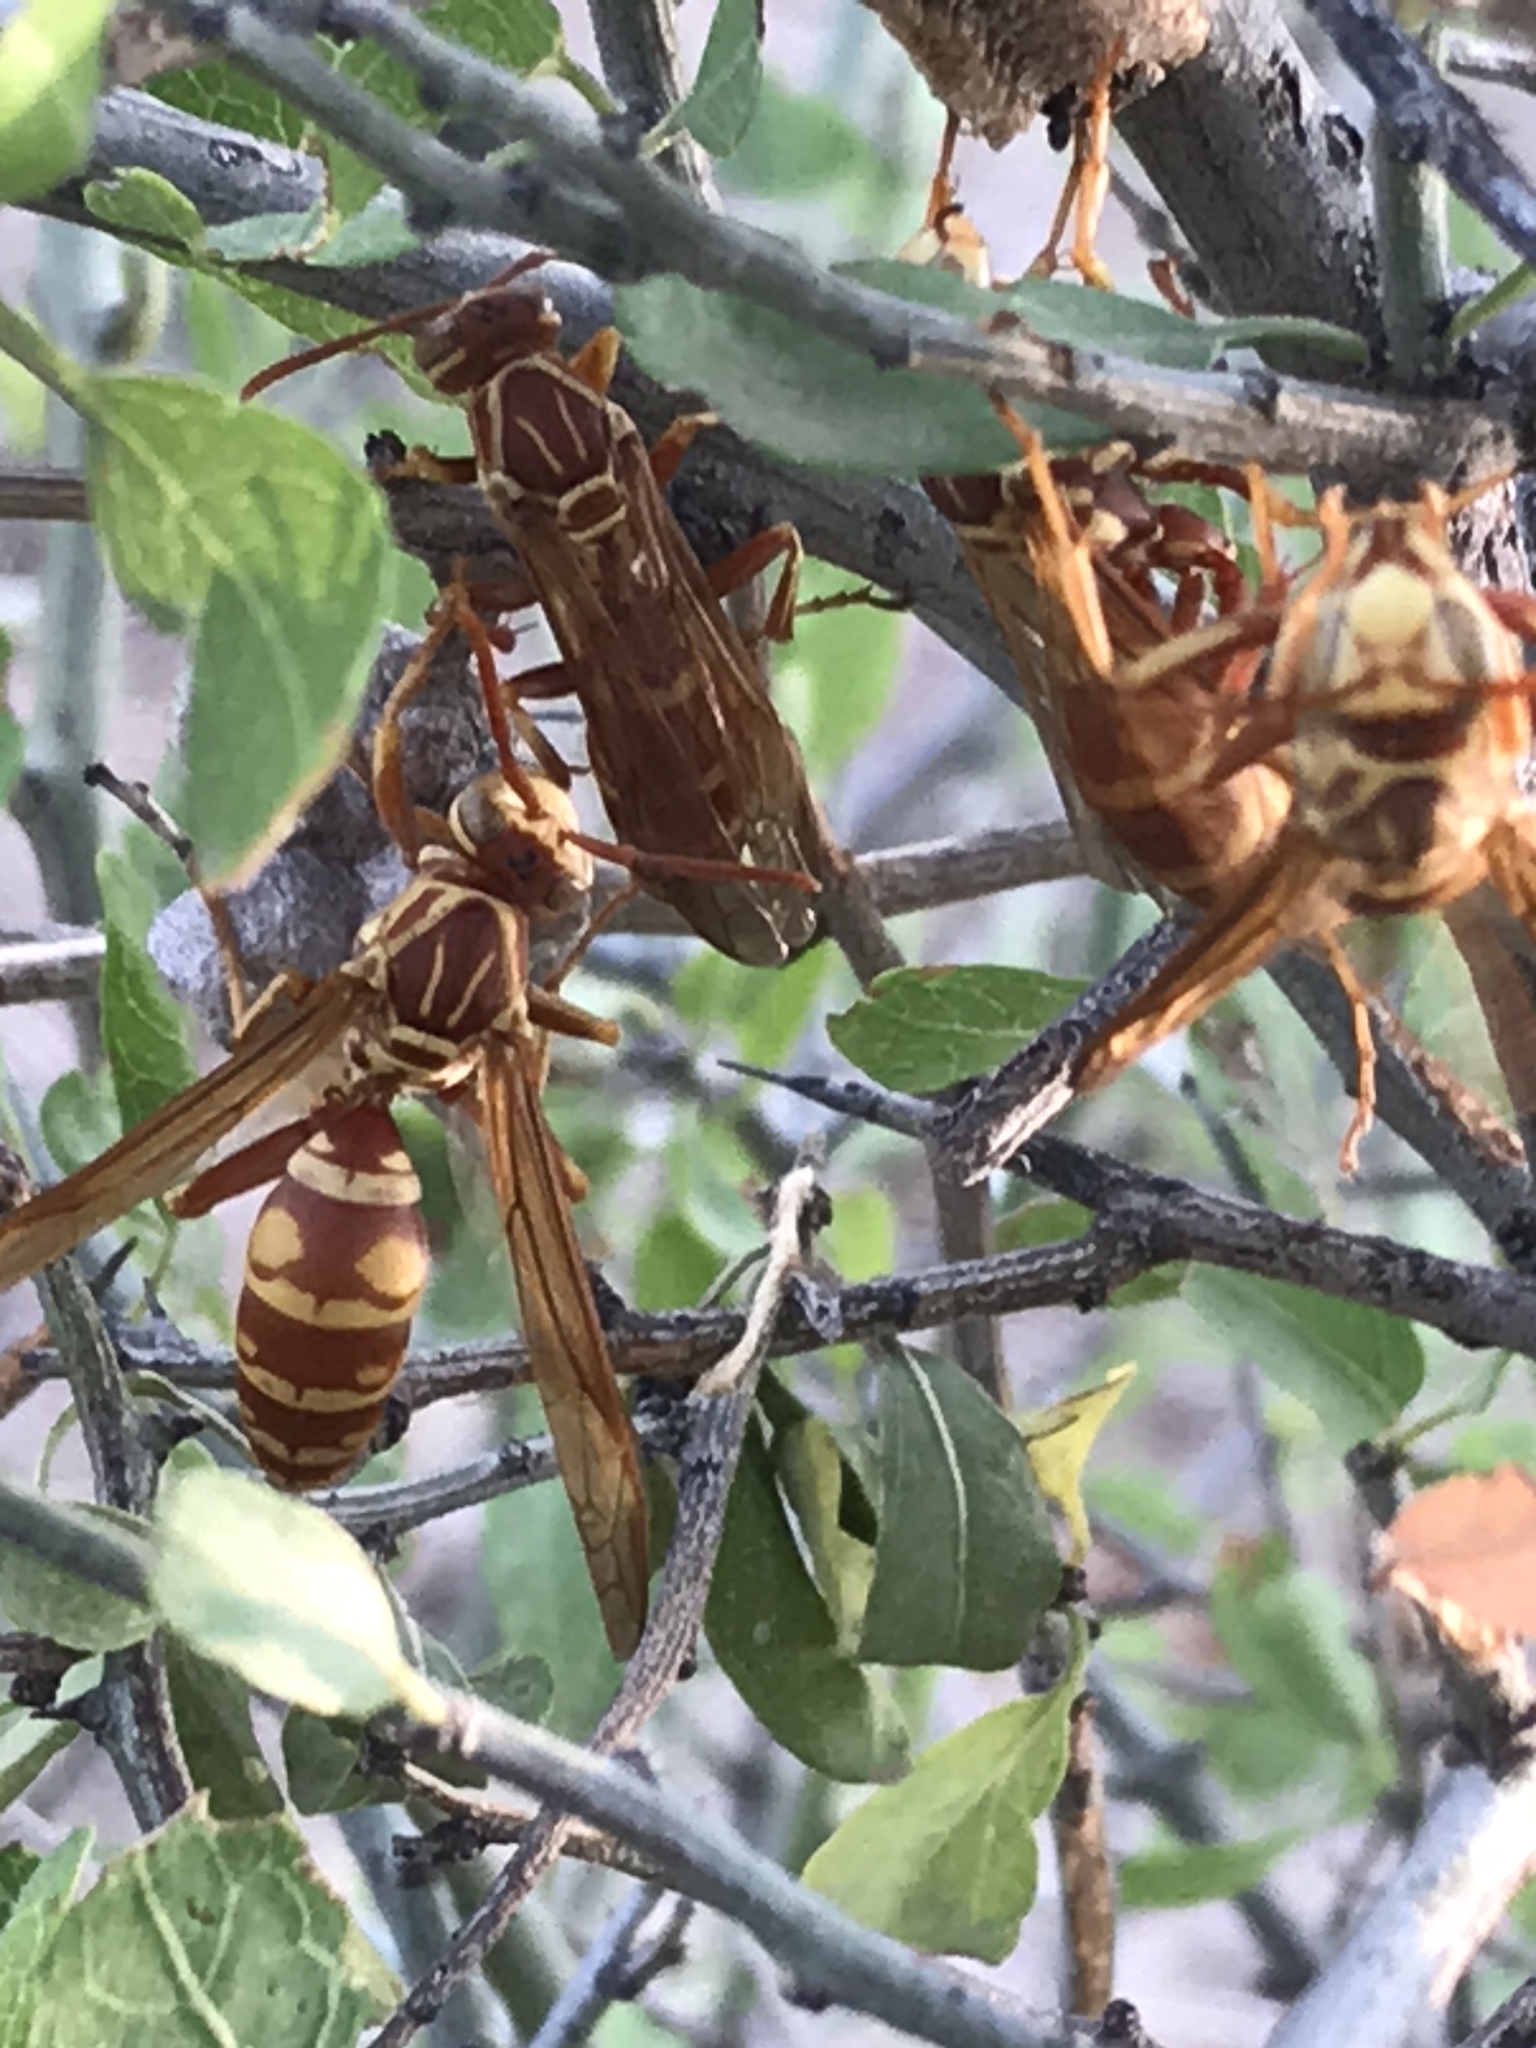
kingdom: Animalia
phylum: Arthropoda
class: Insecta
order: Hymenoptera
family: Eumenidae
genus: Polistes
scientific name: Polistes apachus
